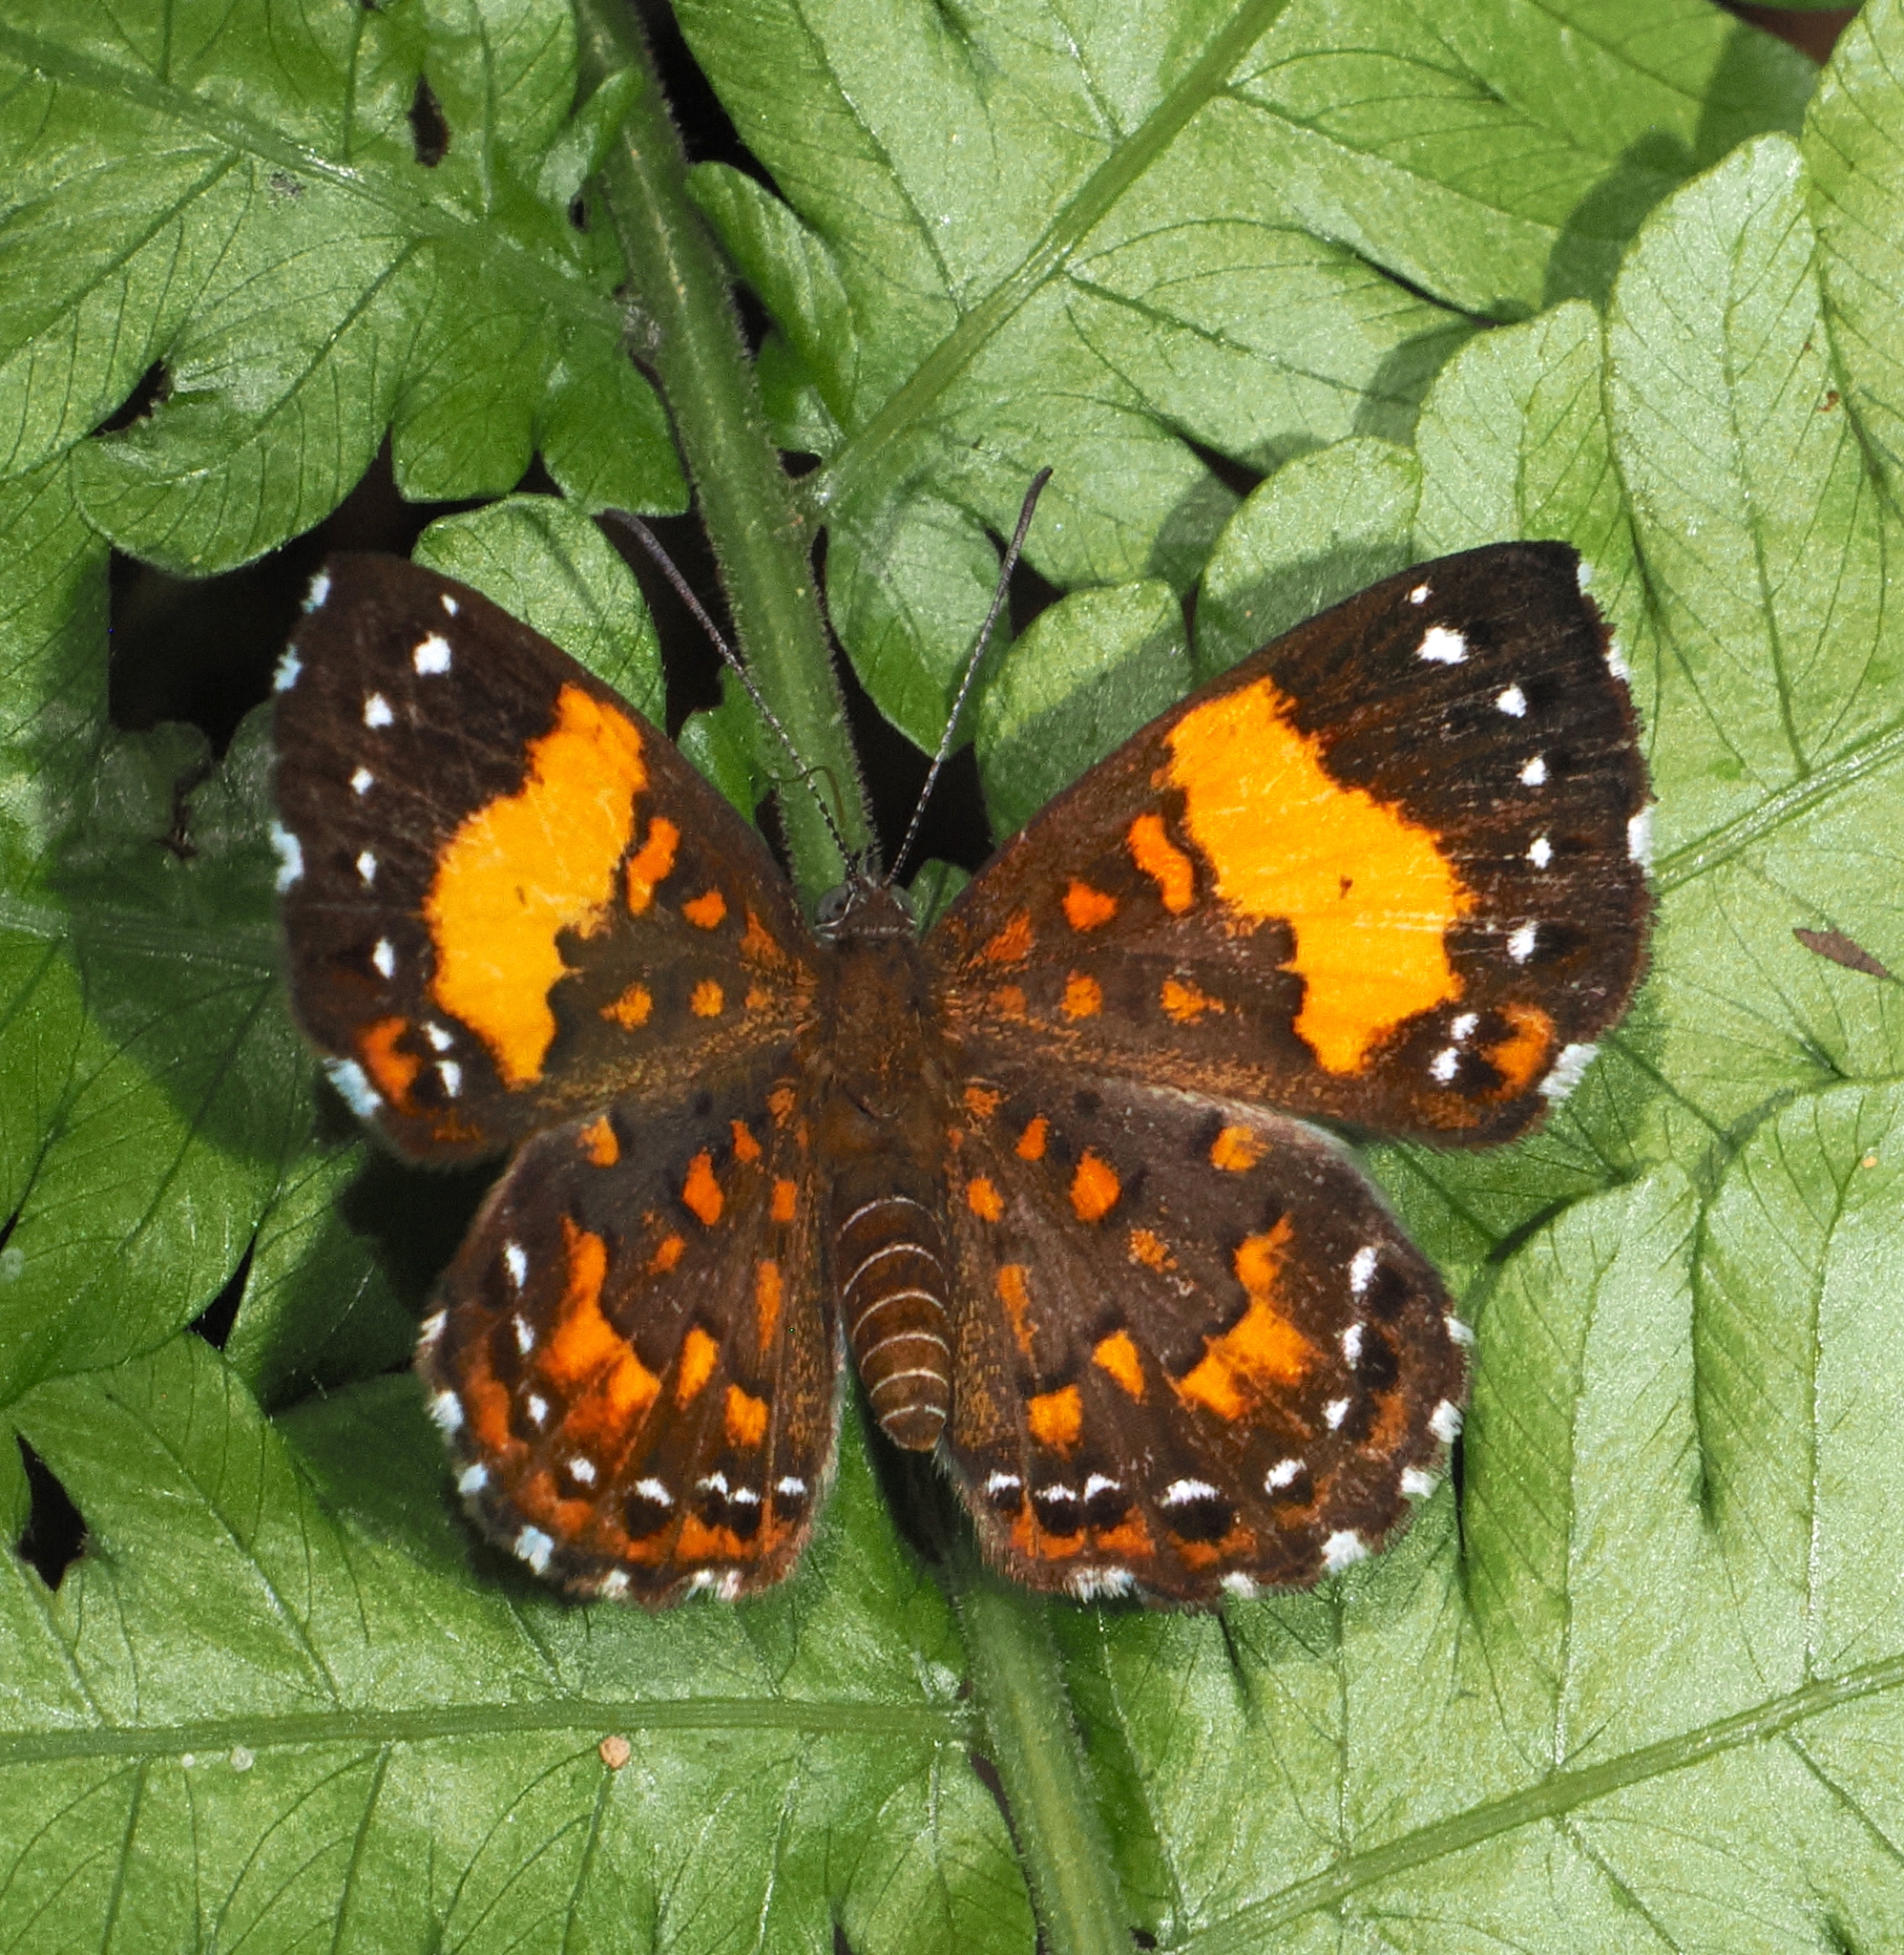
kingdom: Animalia
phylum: Arthropoda
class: Insecta
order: Lepidoptera
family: Riodinidae
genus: Polystichtis
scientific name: Polystichtis emylius
